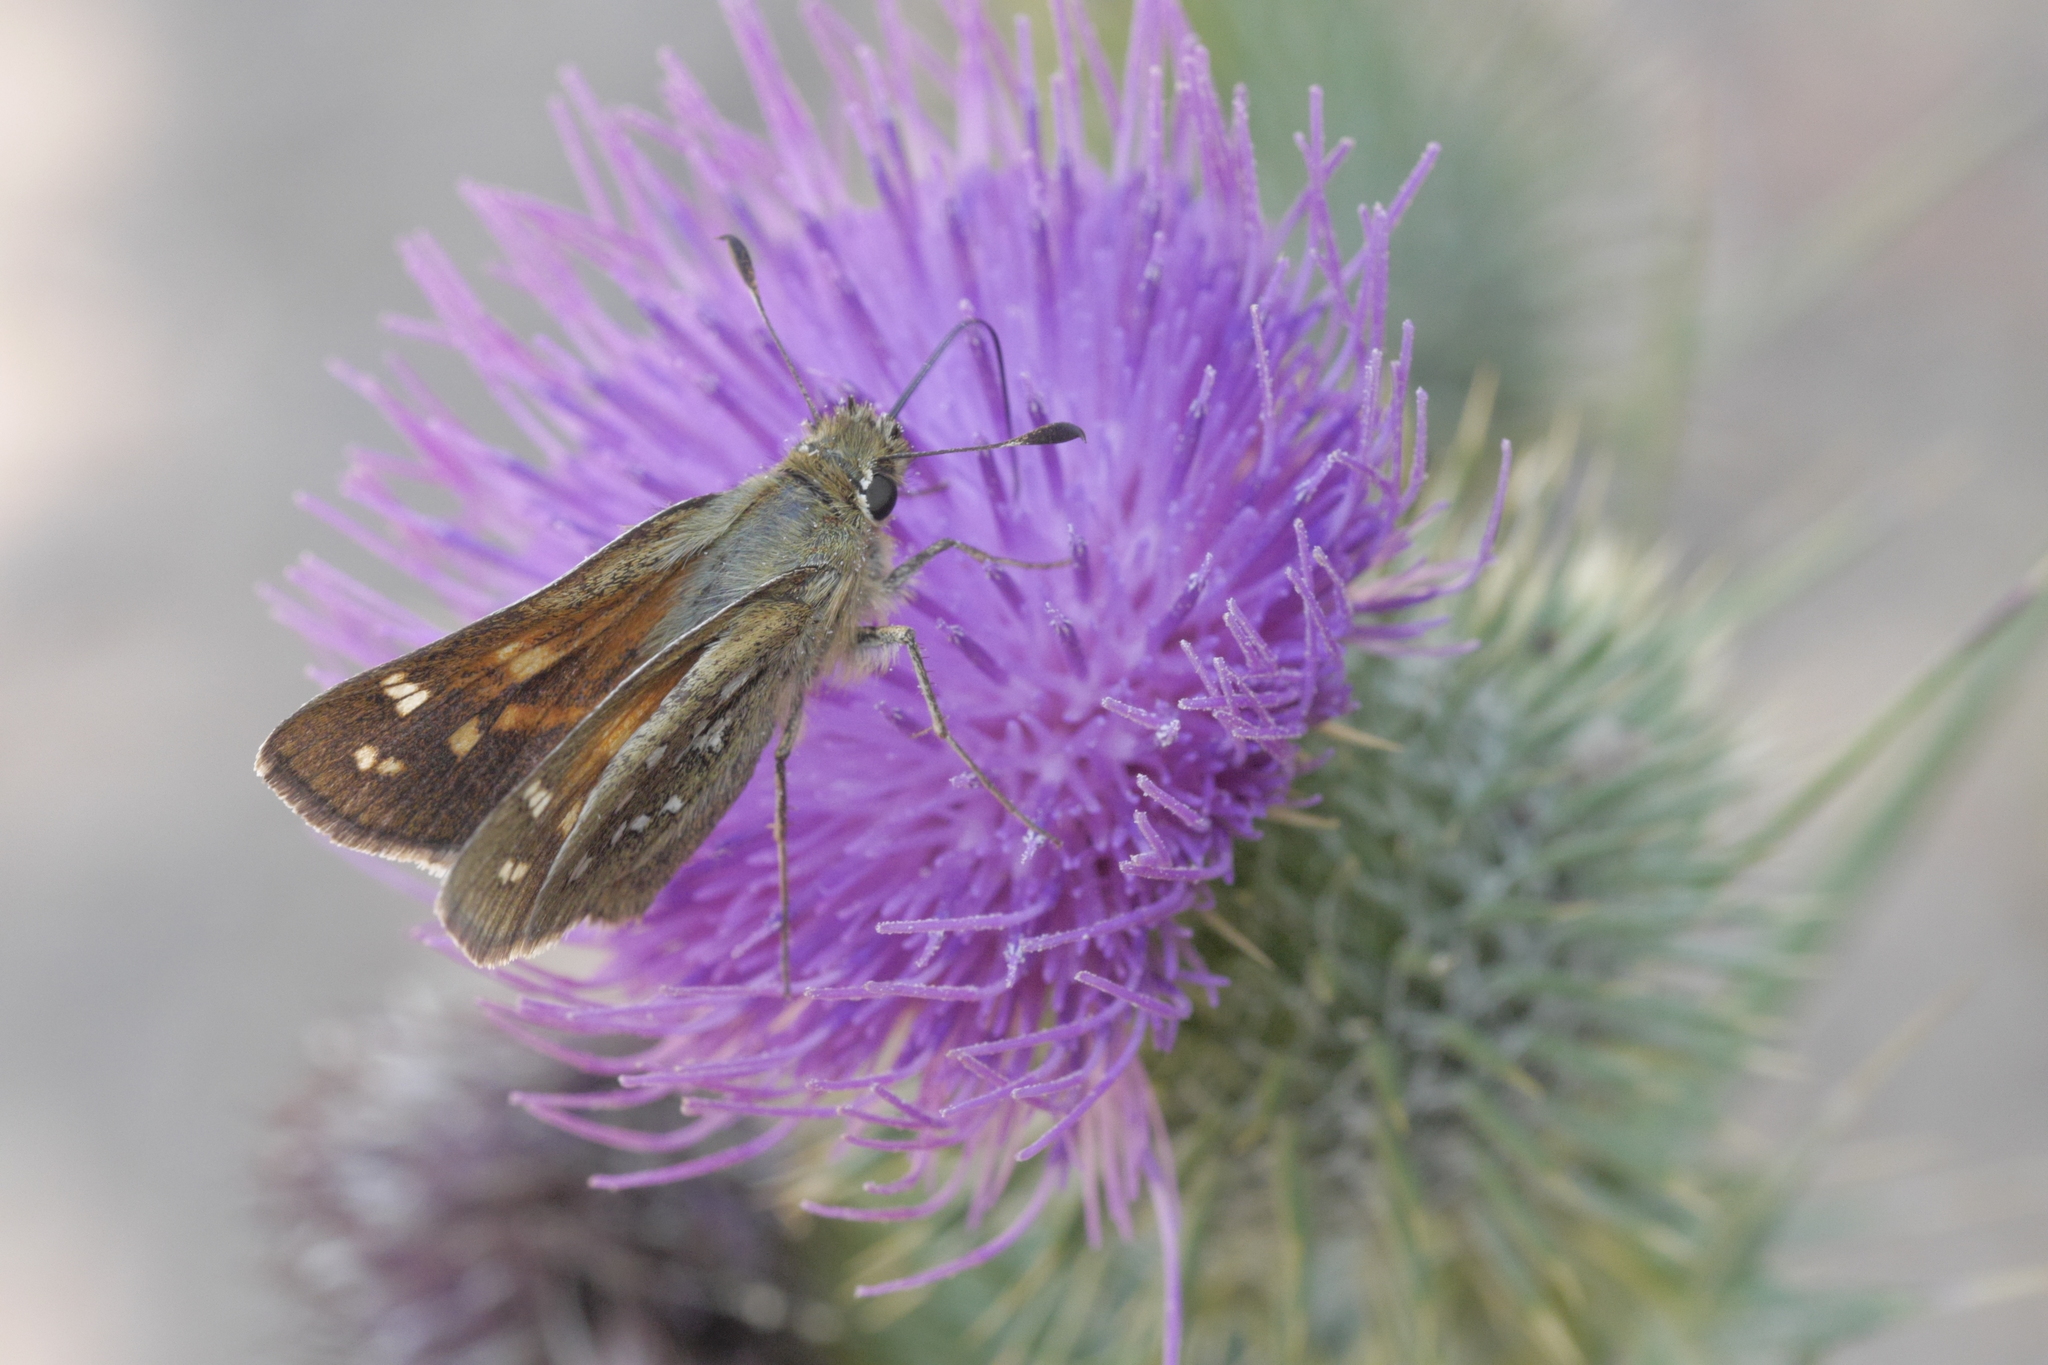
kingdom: Animalia
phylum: Arthropoda
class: Insecta
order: Lepidoptera
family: Hesperiidae
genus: Hesperia
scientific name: Hesperia comma
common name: Common branded skipper
